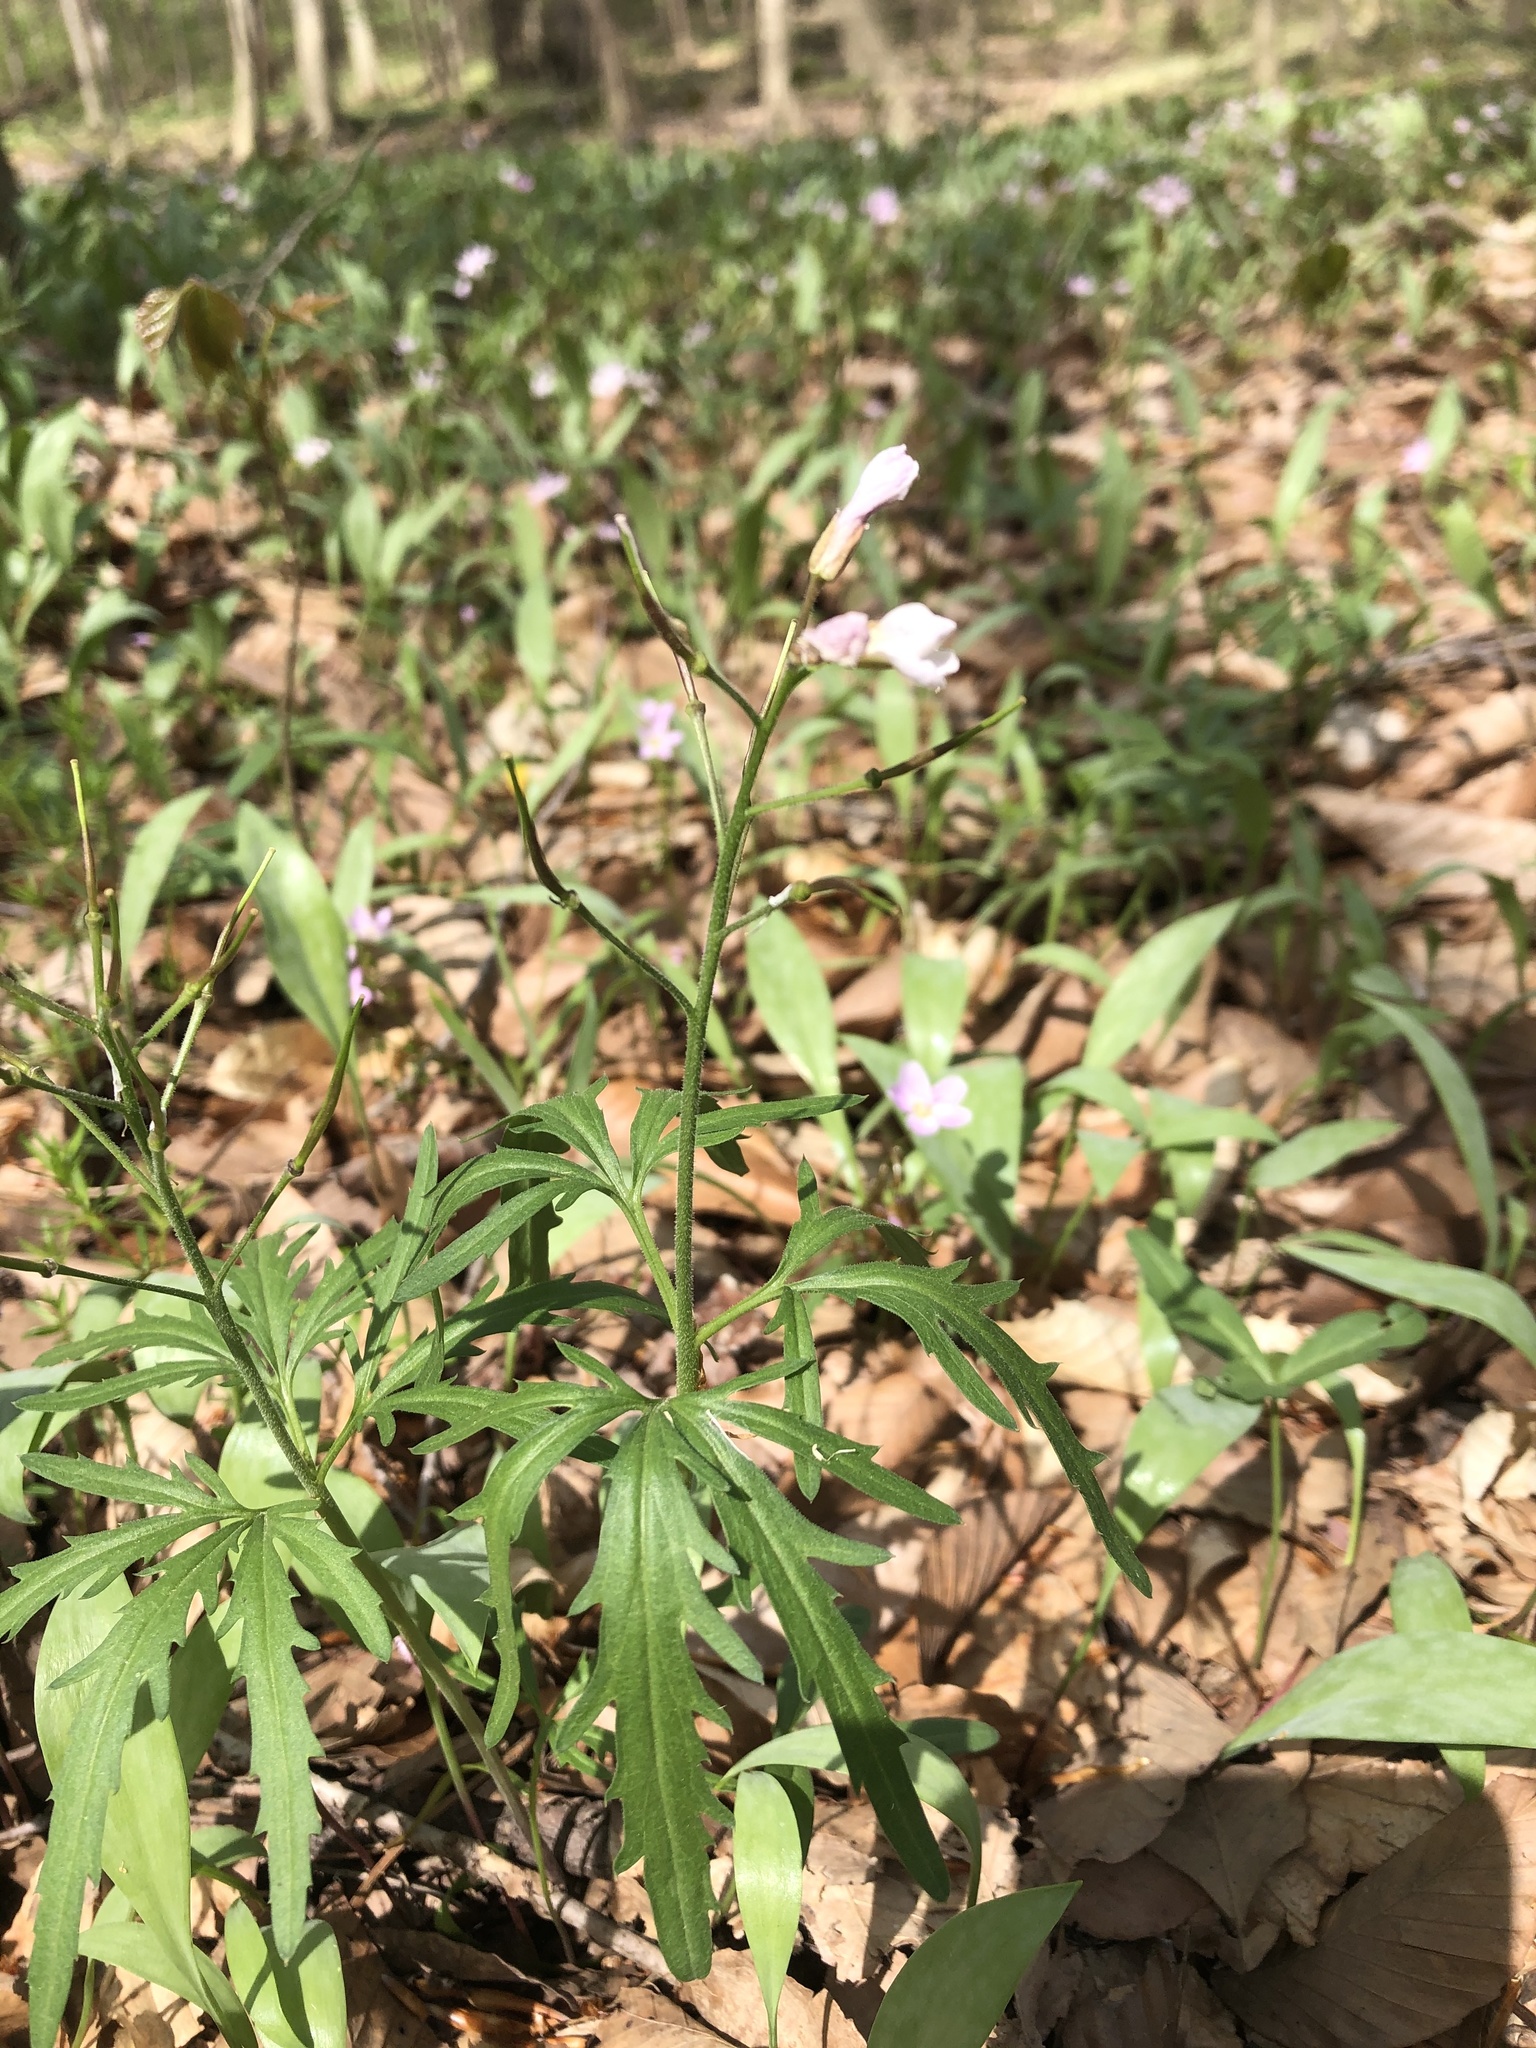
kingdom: Plantae
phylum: Tracheophyta
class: Magnoliopsida
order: Brassicales
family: Brassicaceae
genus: Cardamine
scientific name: Cardamine concatenata
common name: Cut-leaf toothcup
